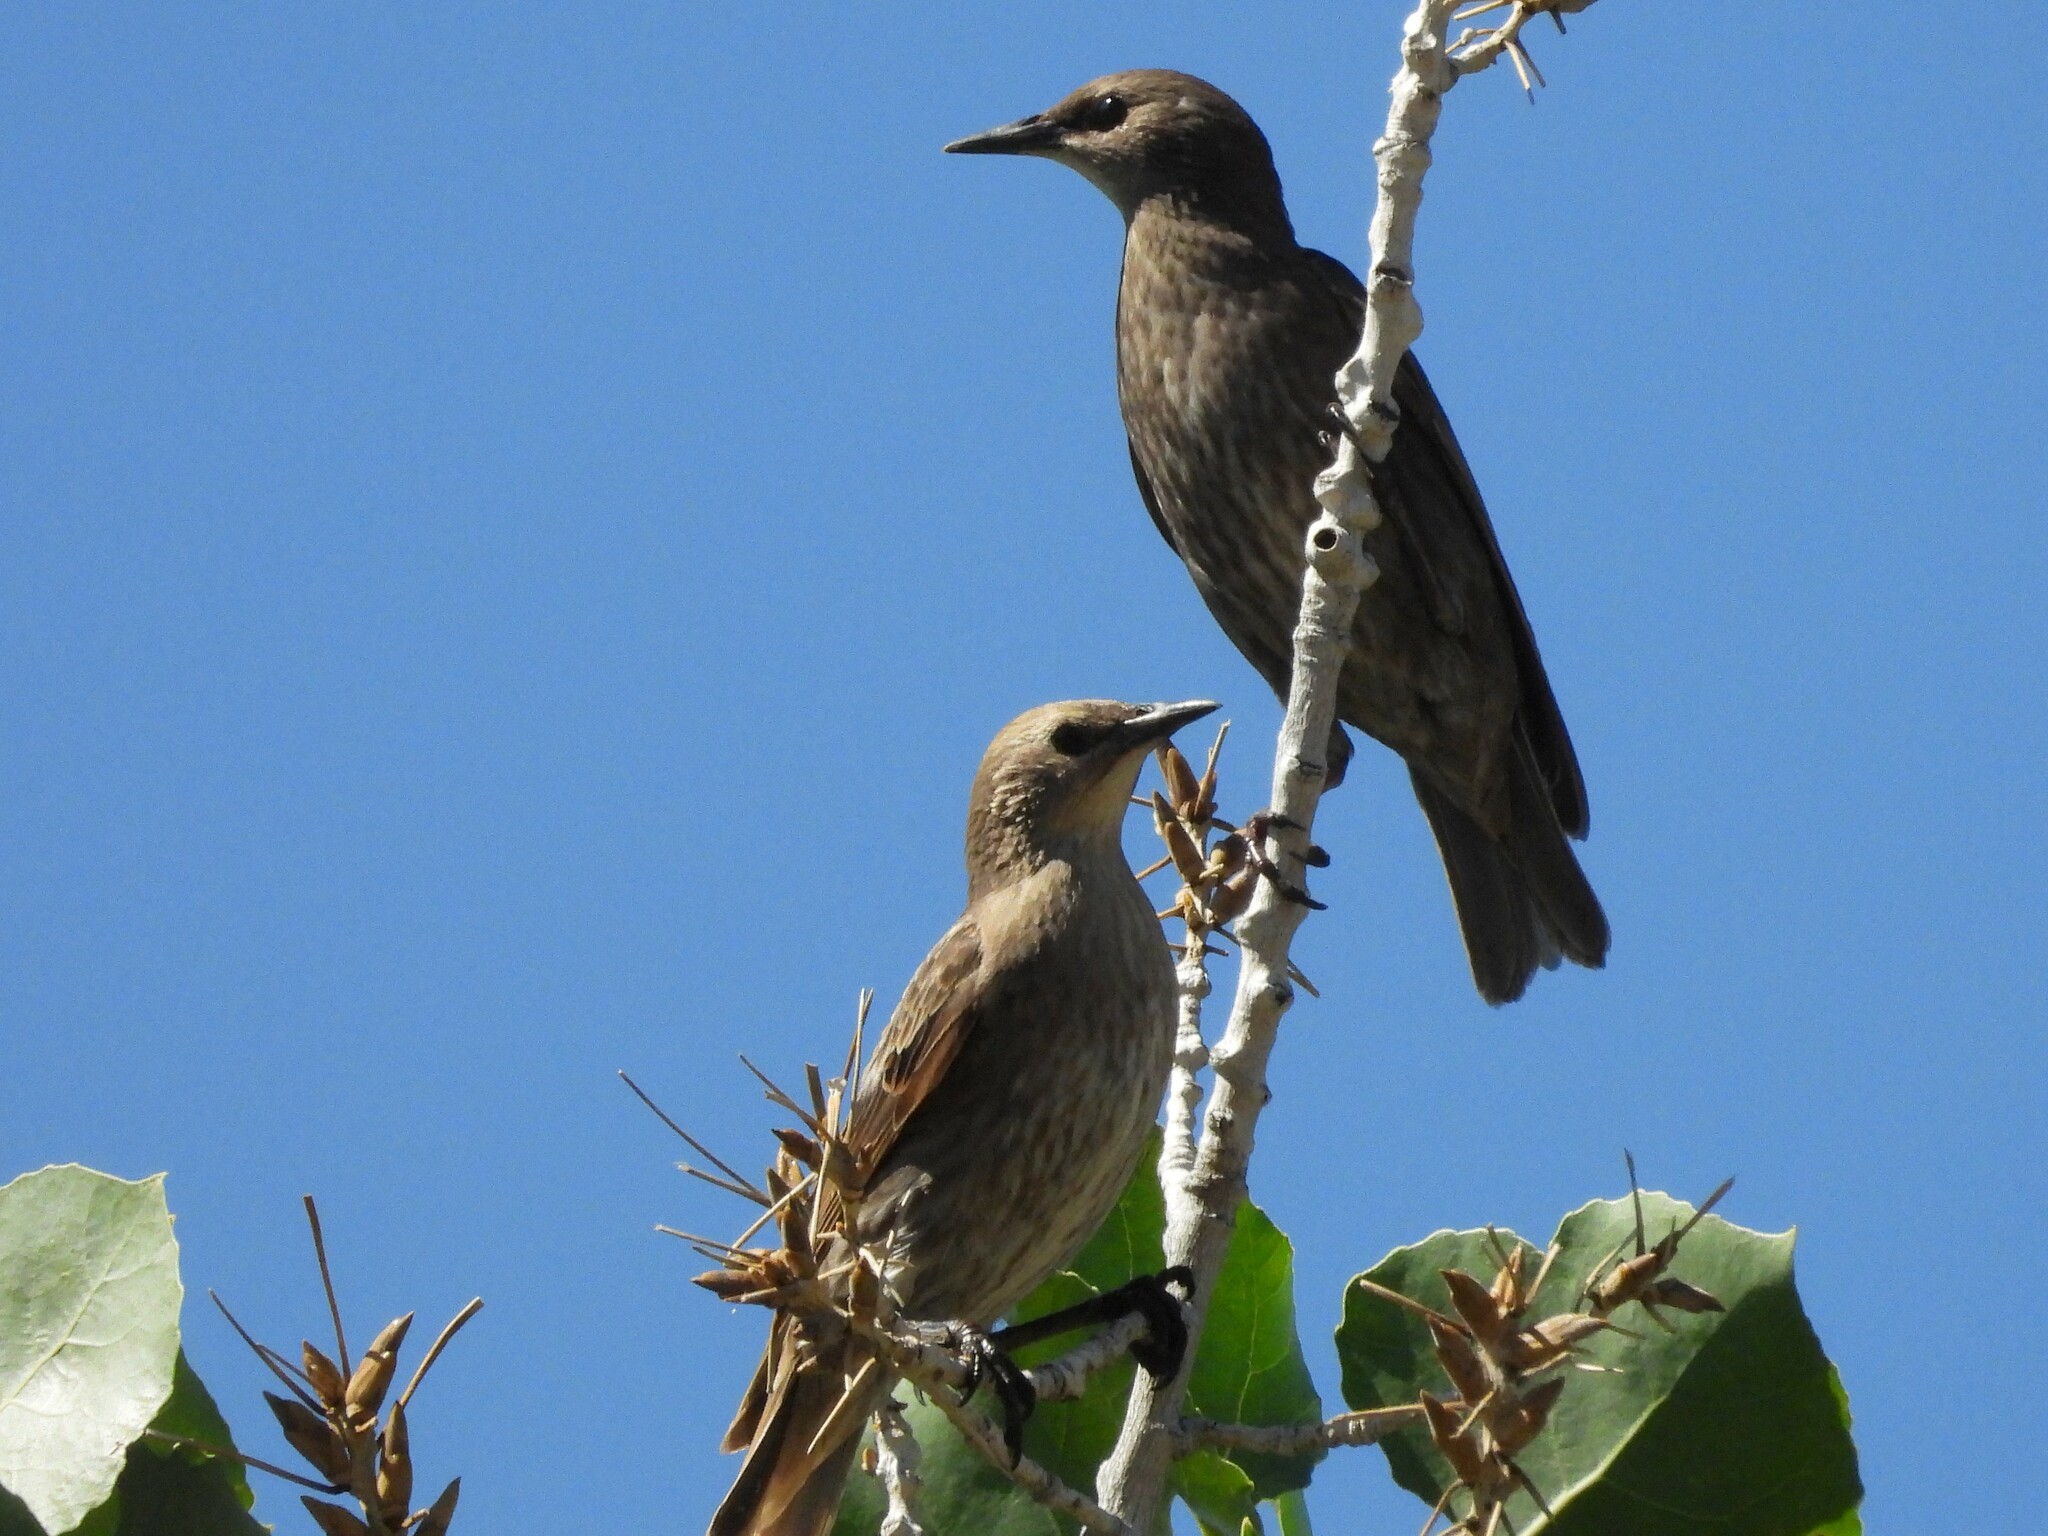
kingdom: Animalia
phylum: Chordata
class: Aves
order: Passeriformes
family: Sturnidae
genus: Sturnus
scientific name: Sturnus vulgaris
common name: Common starling
